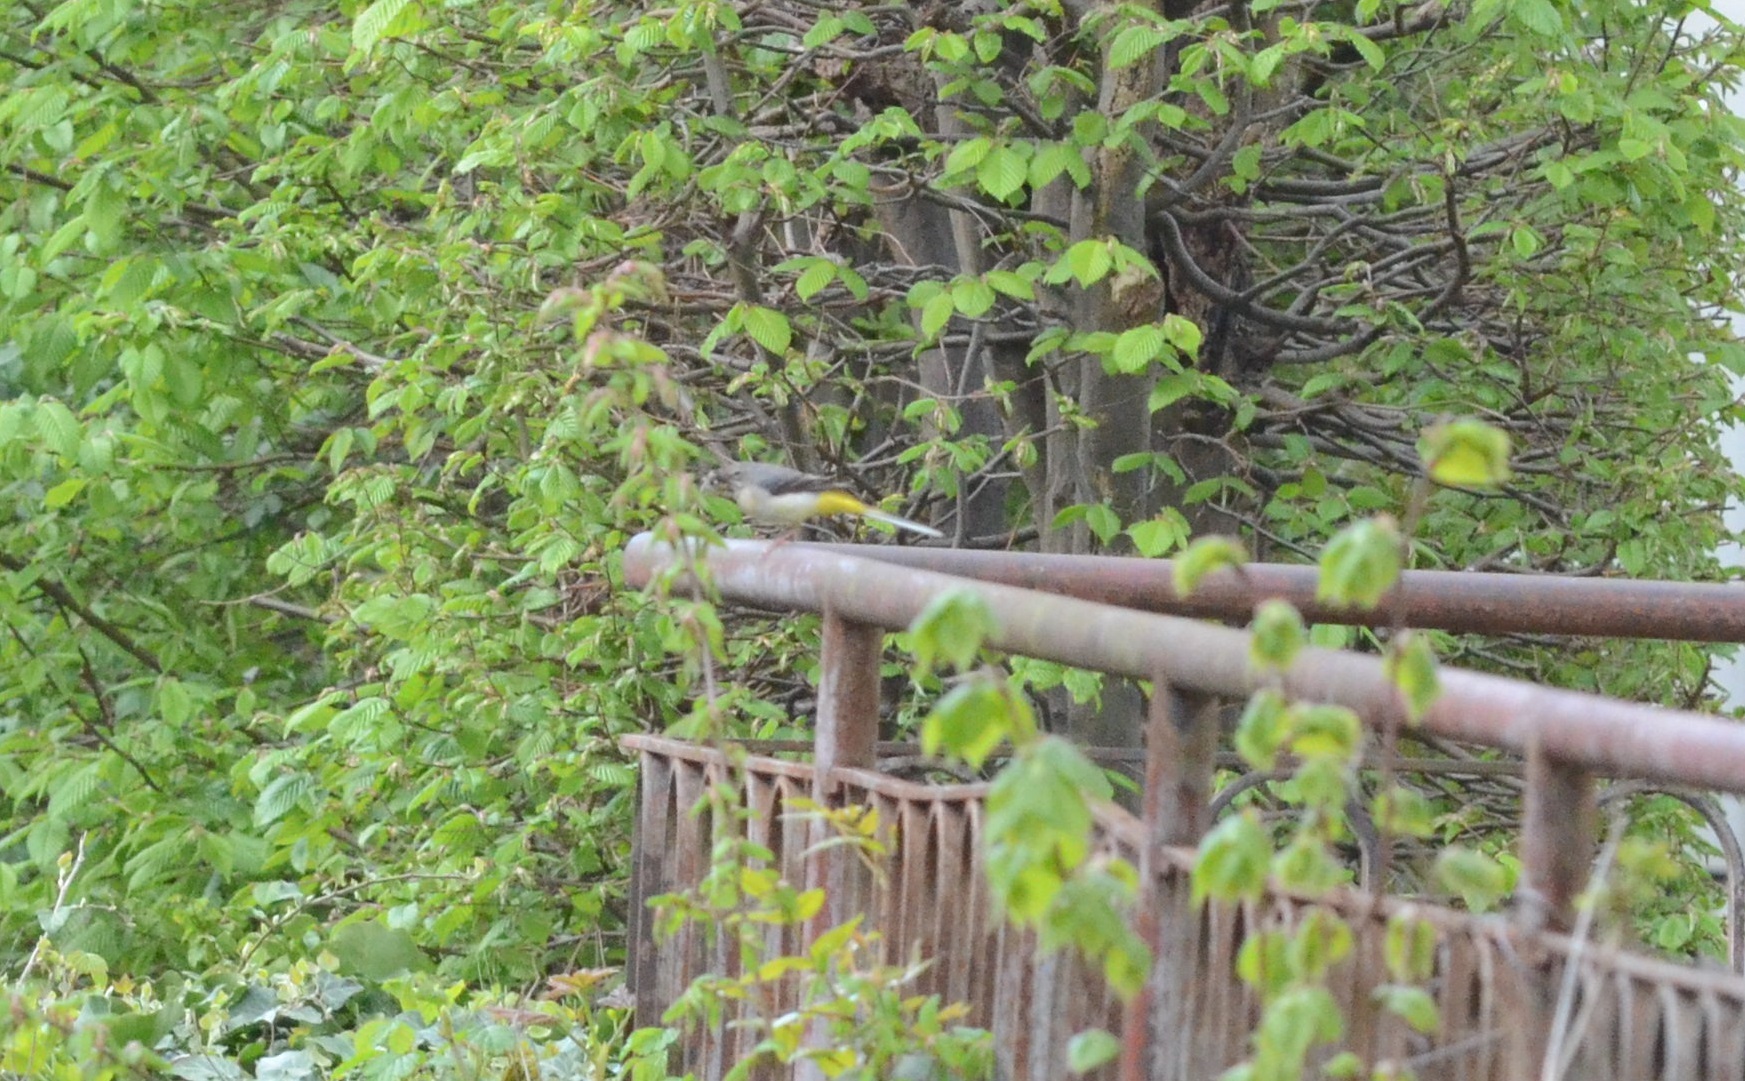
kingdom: Animalia
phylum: Chordata
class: Aves
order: Passeriformes
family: Motacillidae
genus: Motacilla
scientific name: Motacilla cinerea
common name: Grey wagtail
